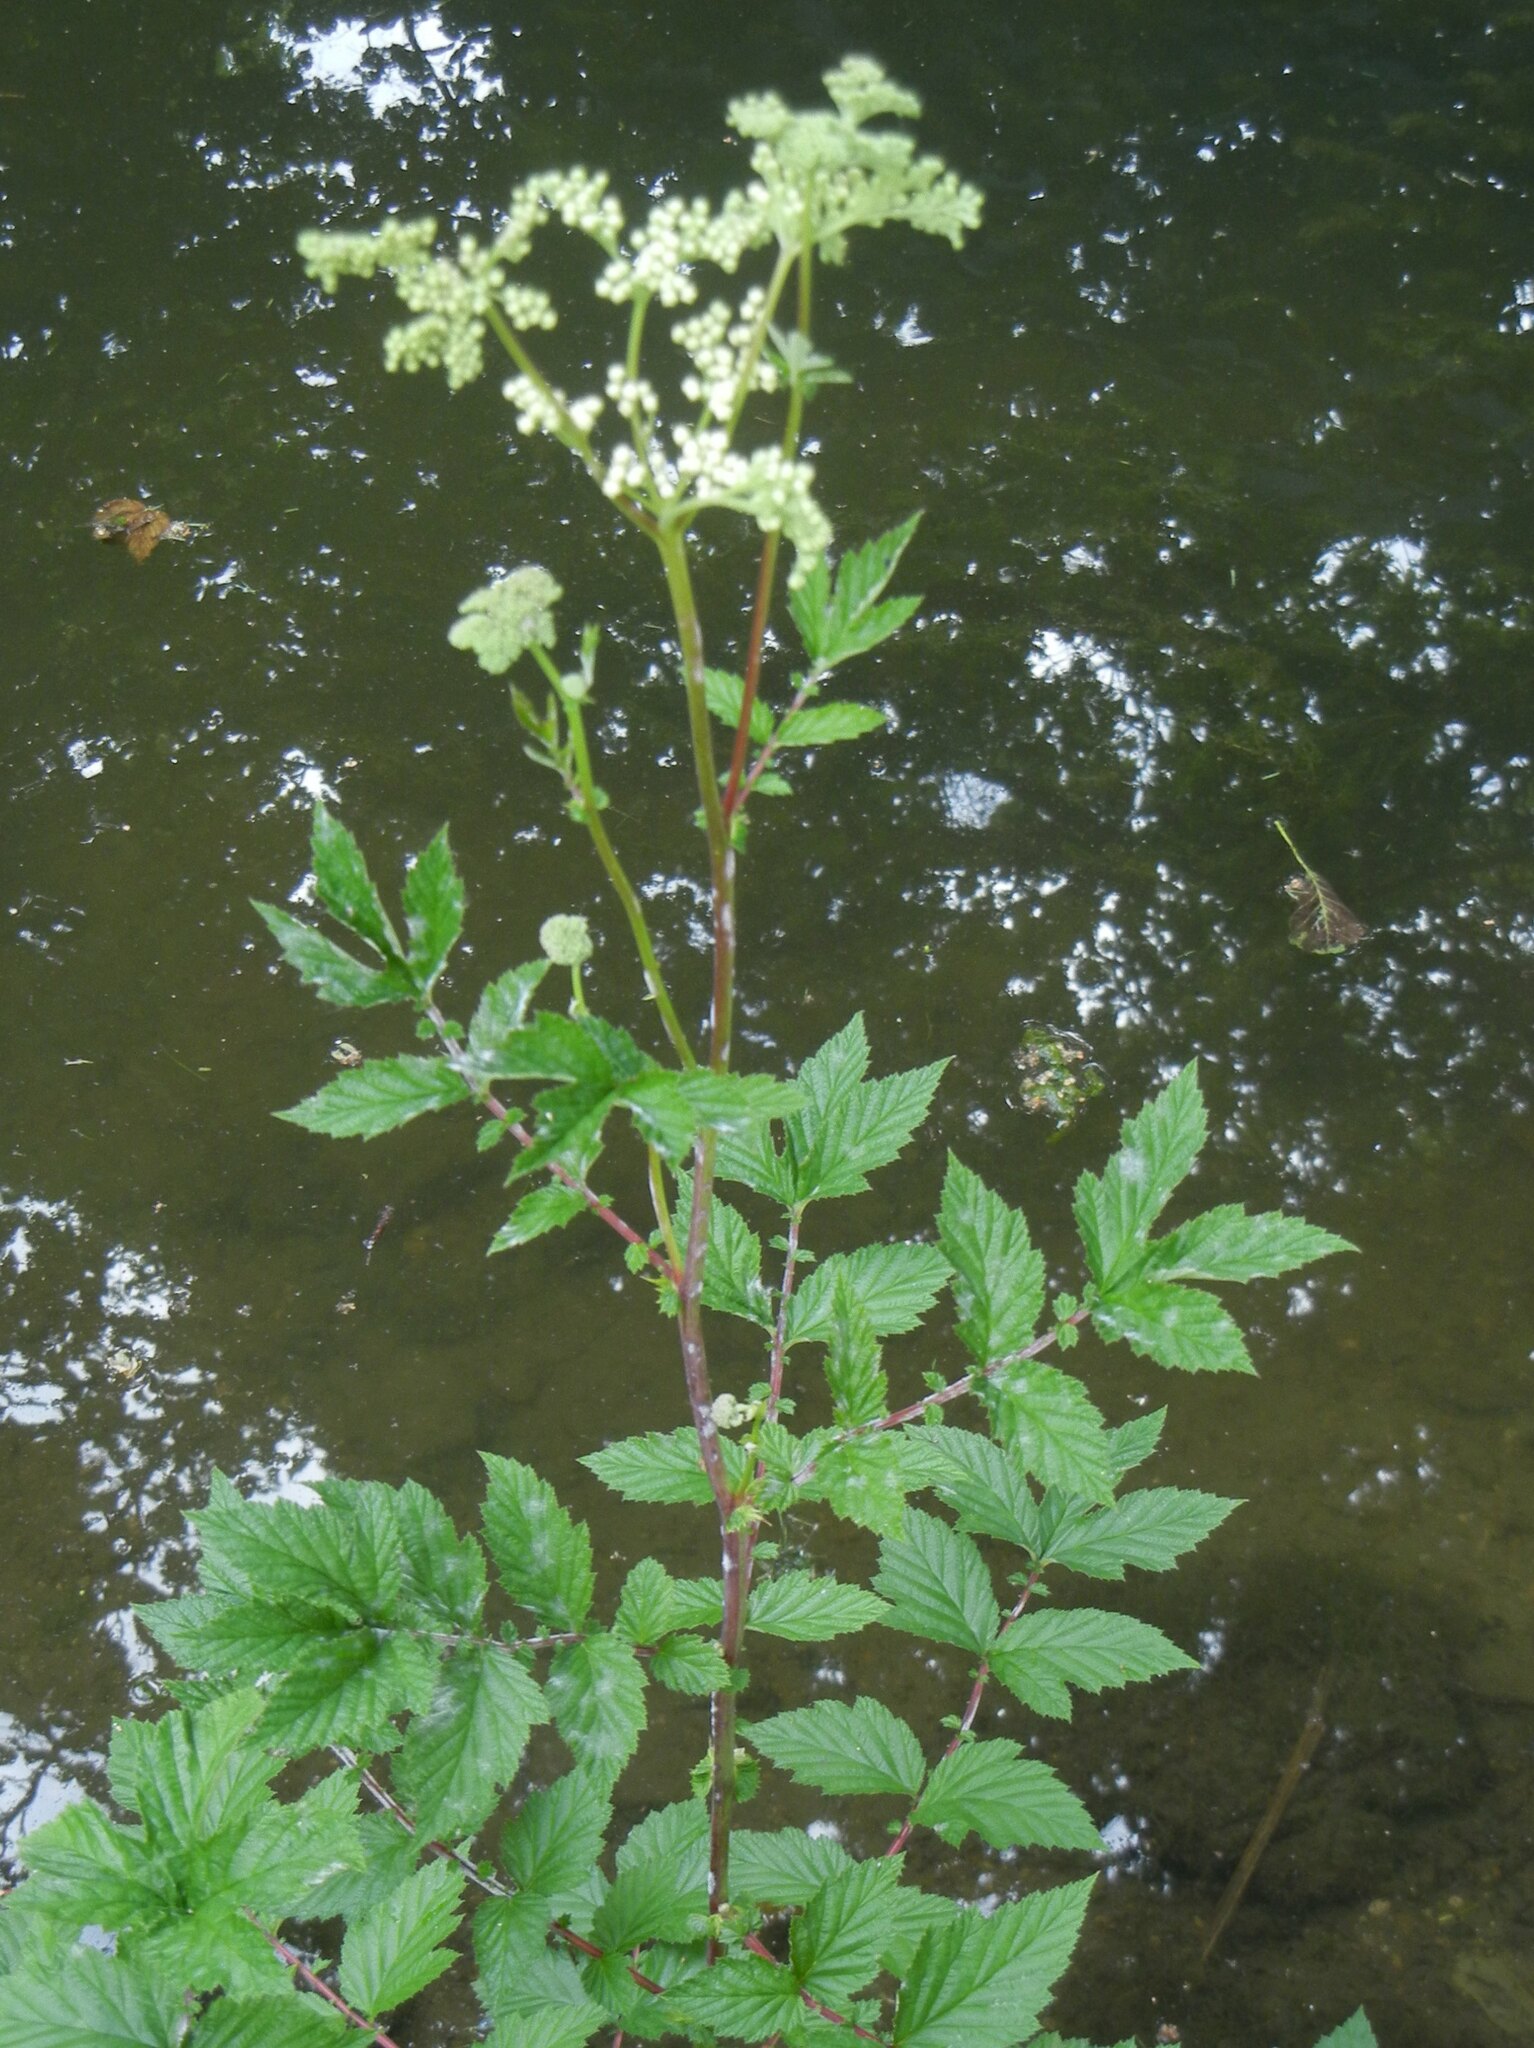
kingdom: Plantae
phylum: Tracheophyta
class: Magnoliopsida
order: Rosales
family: Rosaceae
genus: Filipendula
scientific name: Filipendula ulmaria
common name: Meadowsweet
